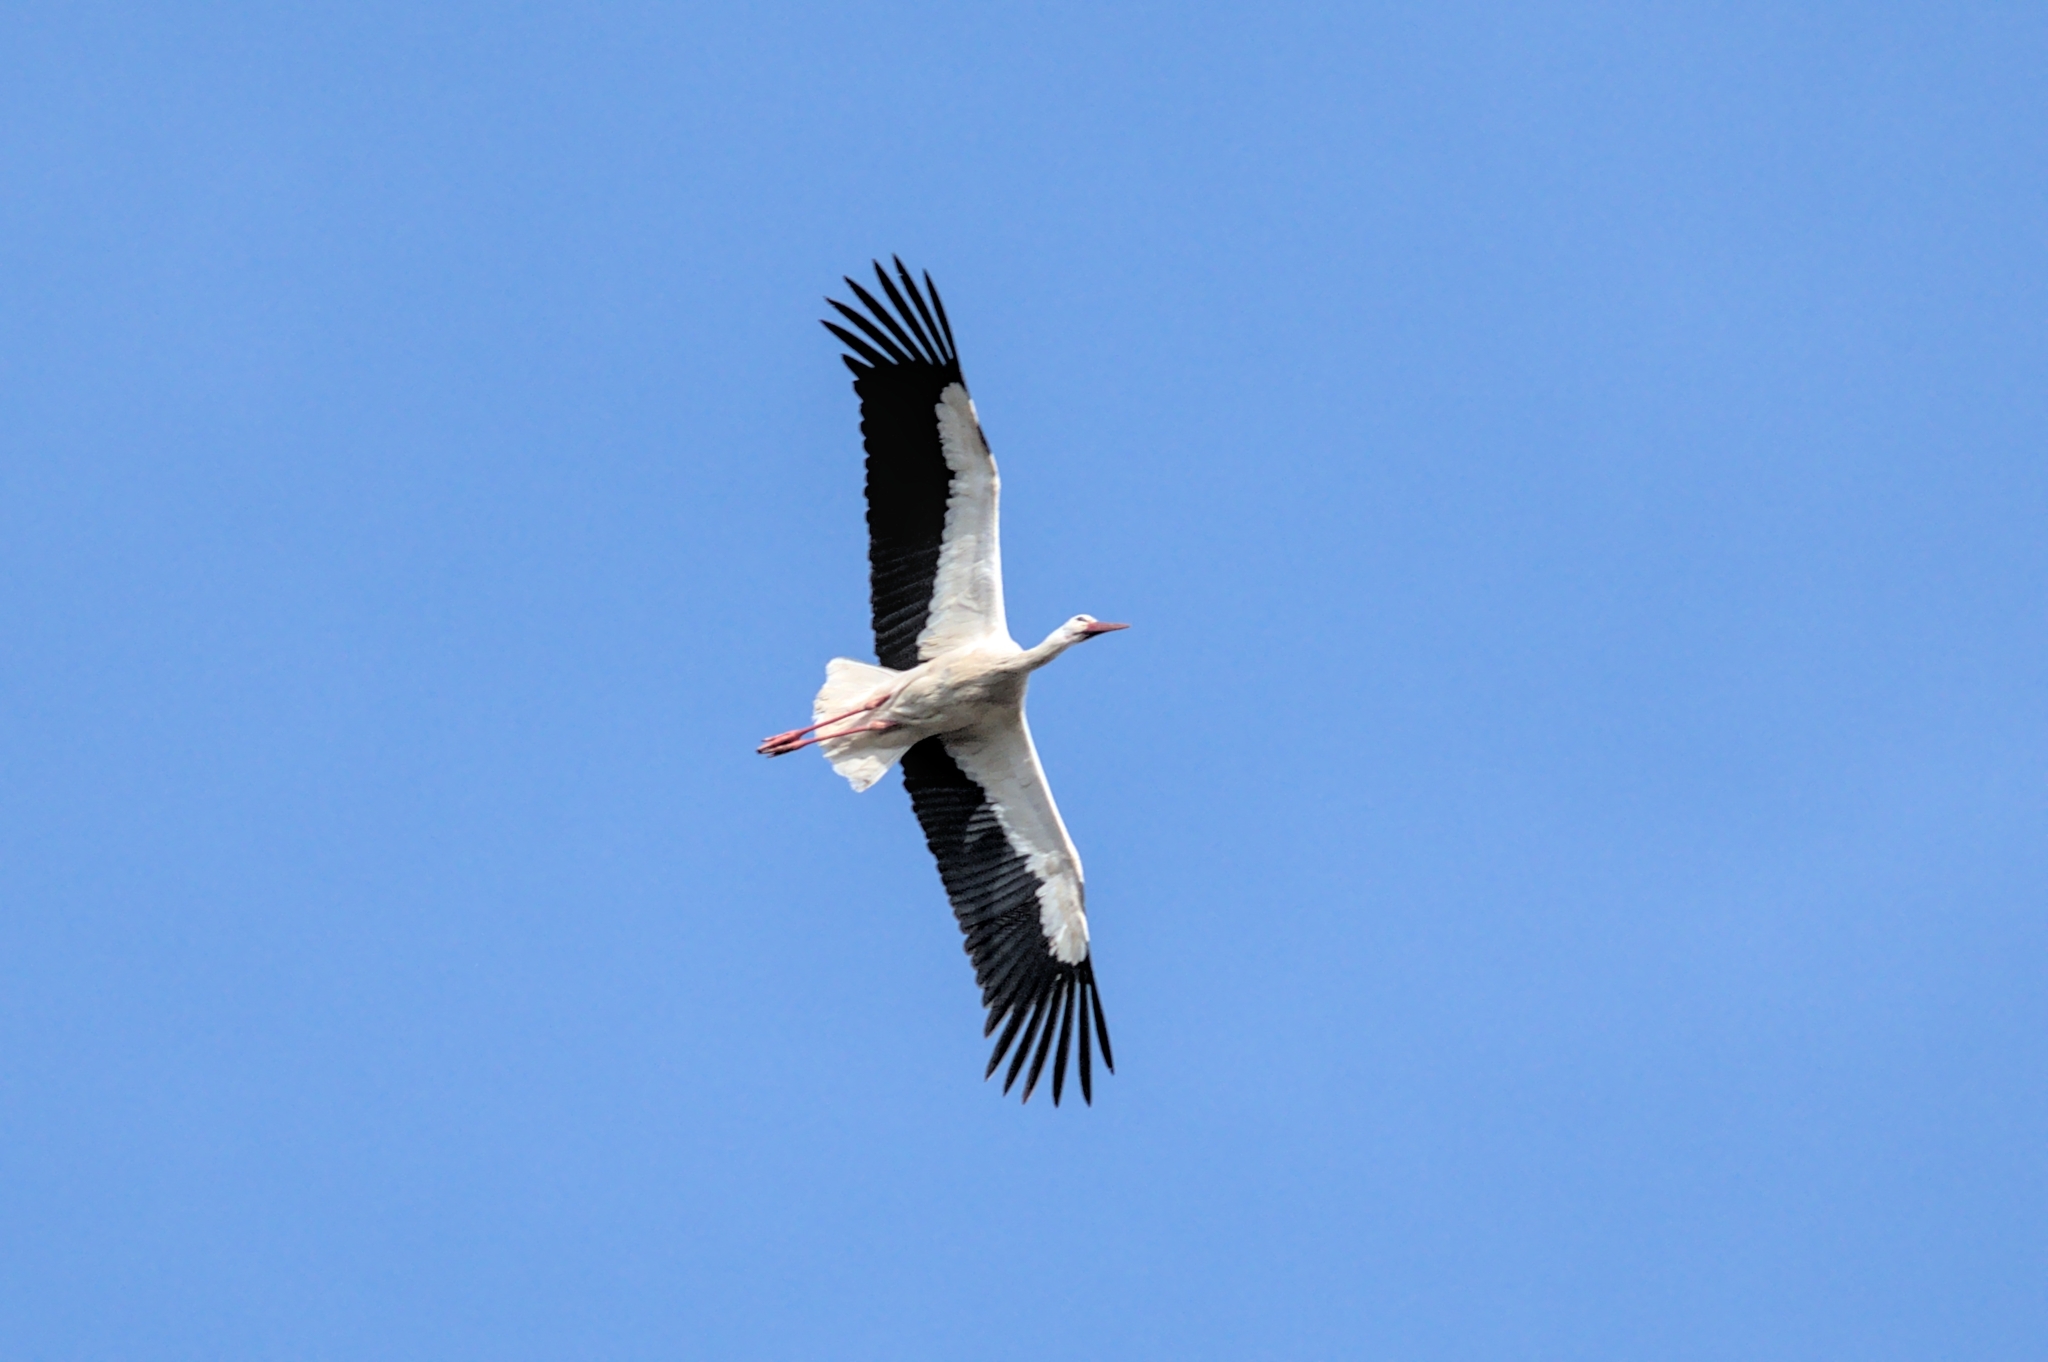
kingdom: Animalia
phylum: Chordata
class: Aves
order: Ciconiiformes
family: Ciconiidae
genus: Ciconia
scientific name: Ciconia ciconia
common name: White stork
